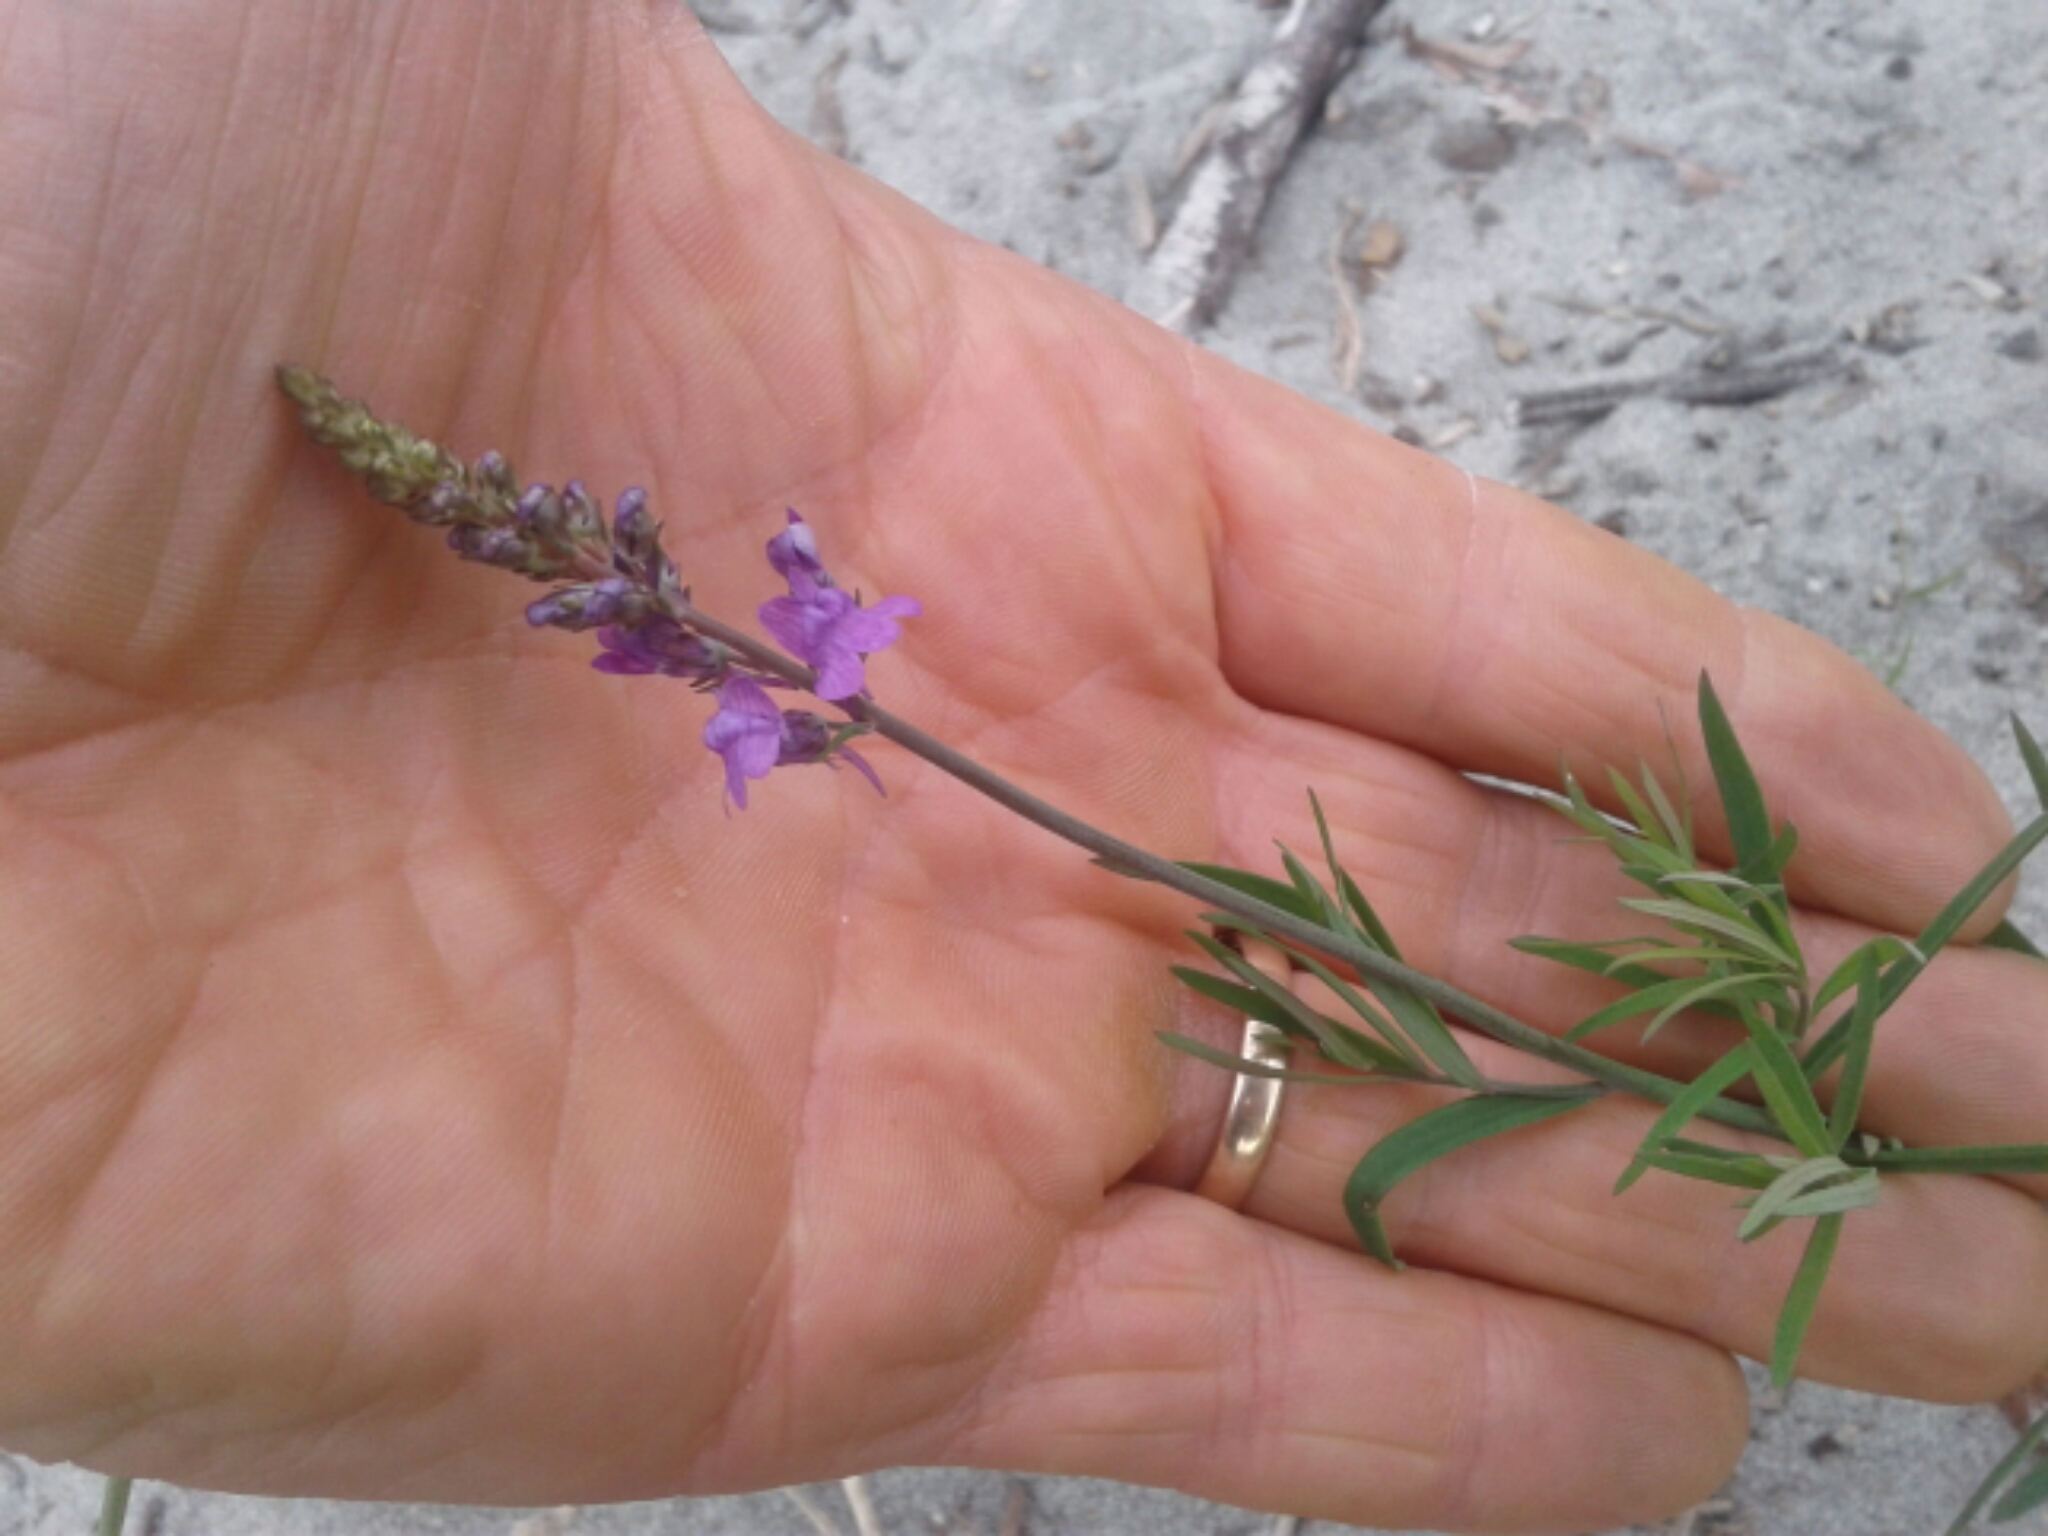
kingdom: Plantae
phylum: Tracheophyta
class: Magnoliopsida
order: Lamiales
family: Plantaginaceae
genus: Linaria
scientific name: Linaria purpurea
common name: Purple toadflax
